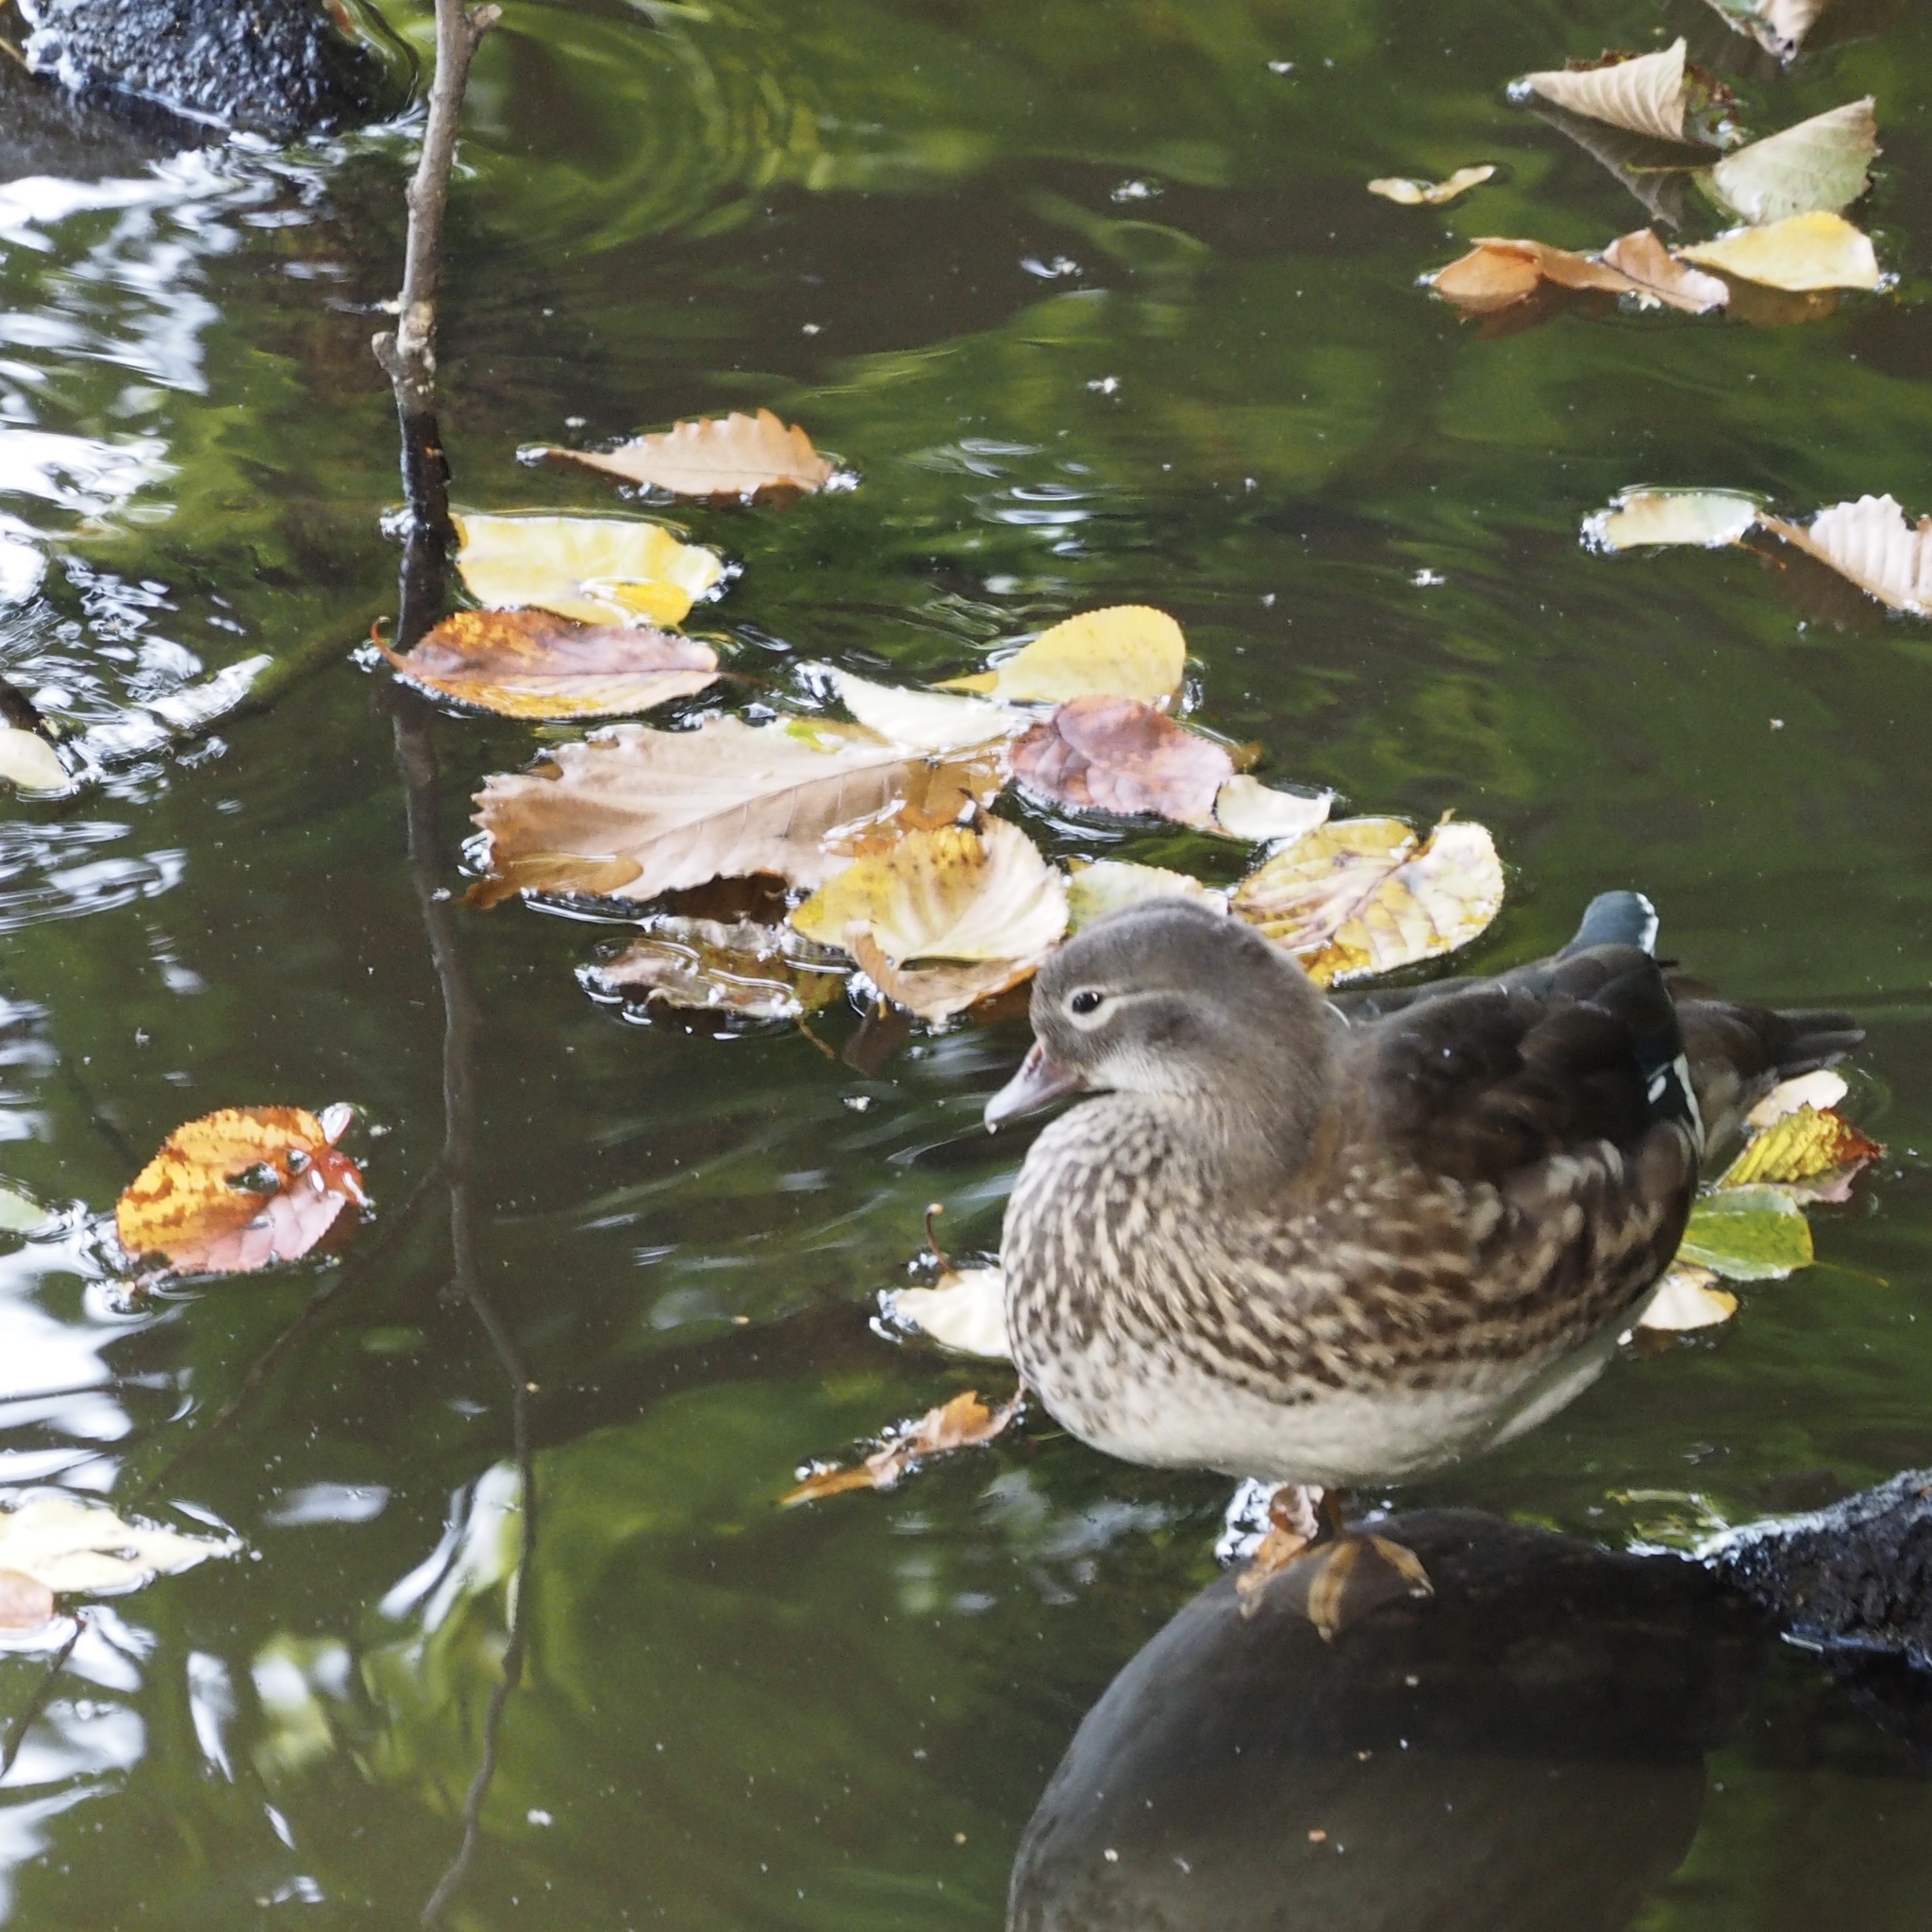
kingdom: Animalia
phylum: Chordata
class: Aves
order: Anseriformes
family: Anatidae
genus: Aix
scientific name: Aix galericulata
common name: Mandarin duck
